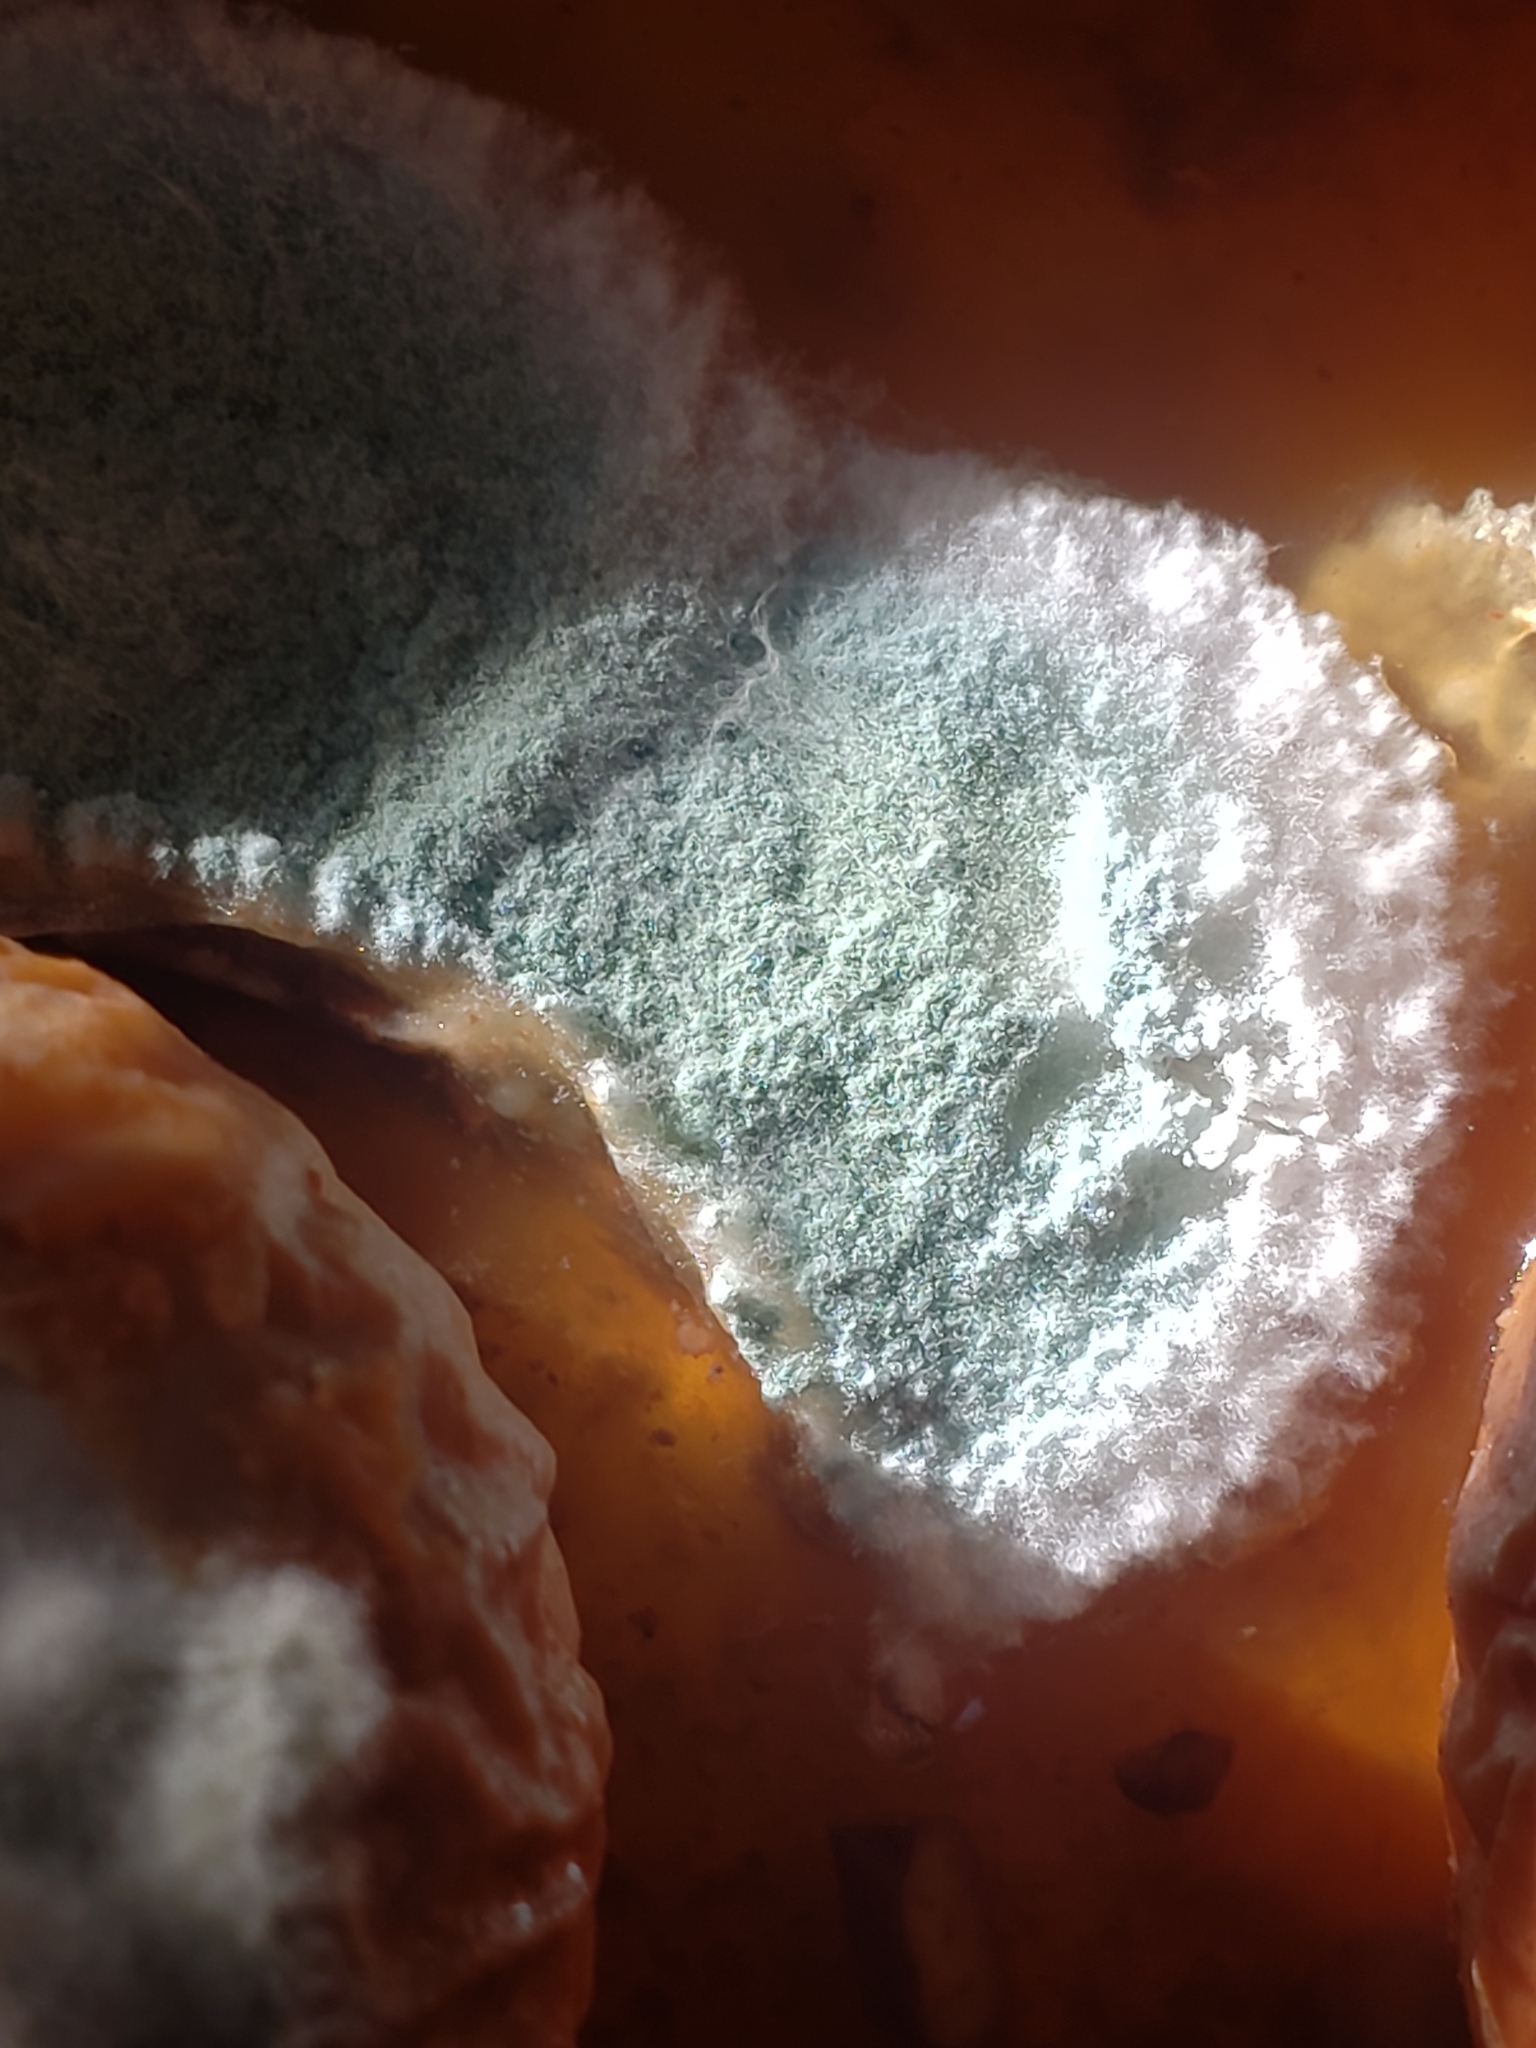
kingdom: Fungi
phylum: Ascomycota
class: Eurotiomycetes
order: Eurotiales
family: Aspergillaceae
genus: Penicillium
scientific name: Penicillium expansum
